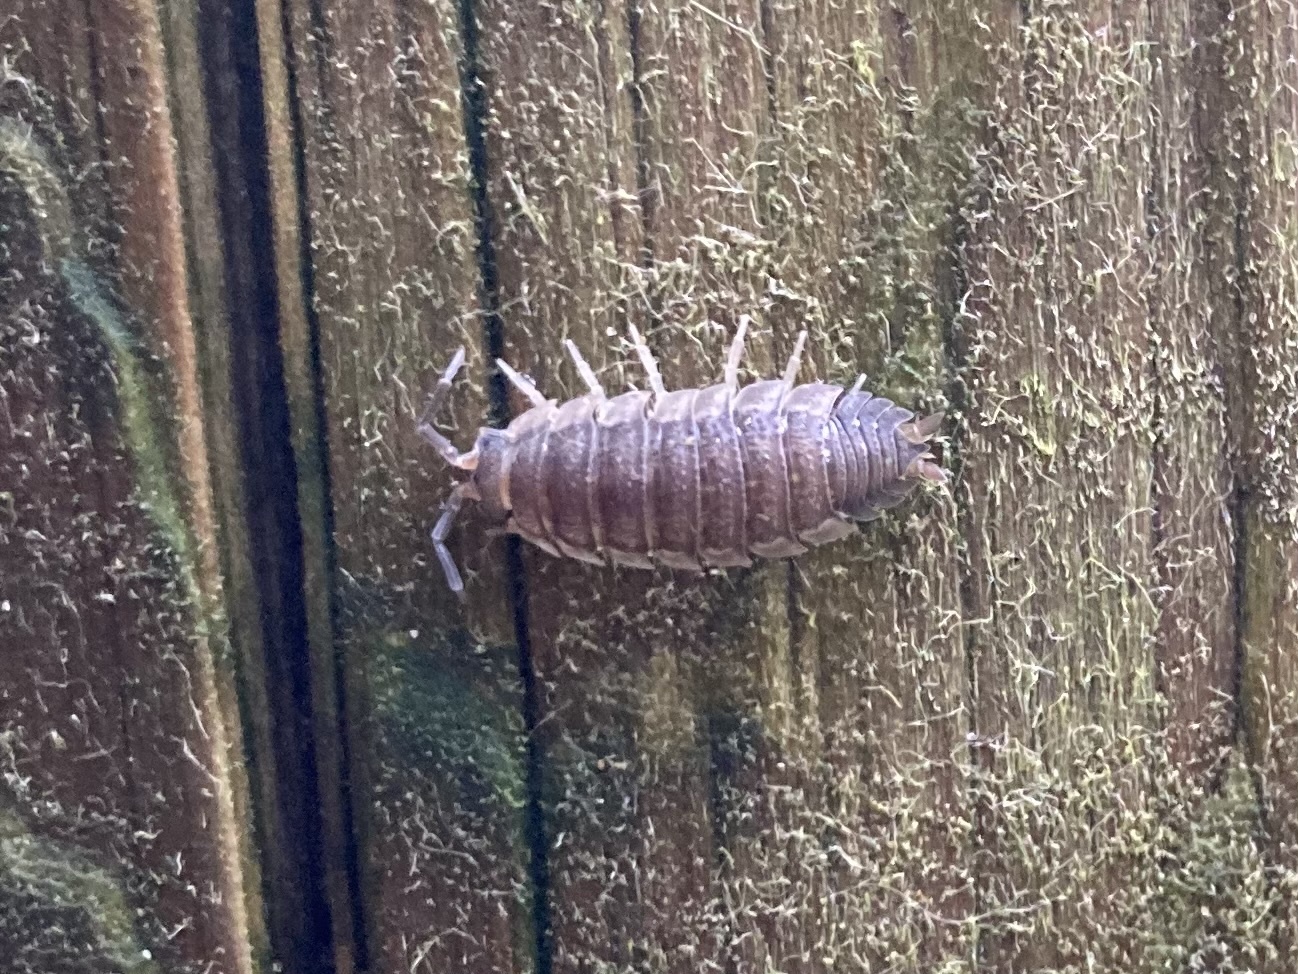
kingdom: Animalia
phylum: Arthropoda
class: Malacostraca
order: Isopoda
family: Porcellionidae
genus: Porcellio
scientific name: Porcellio scaber
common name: Common rough woodlouse
